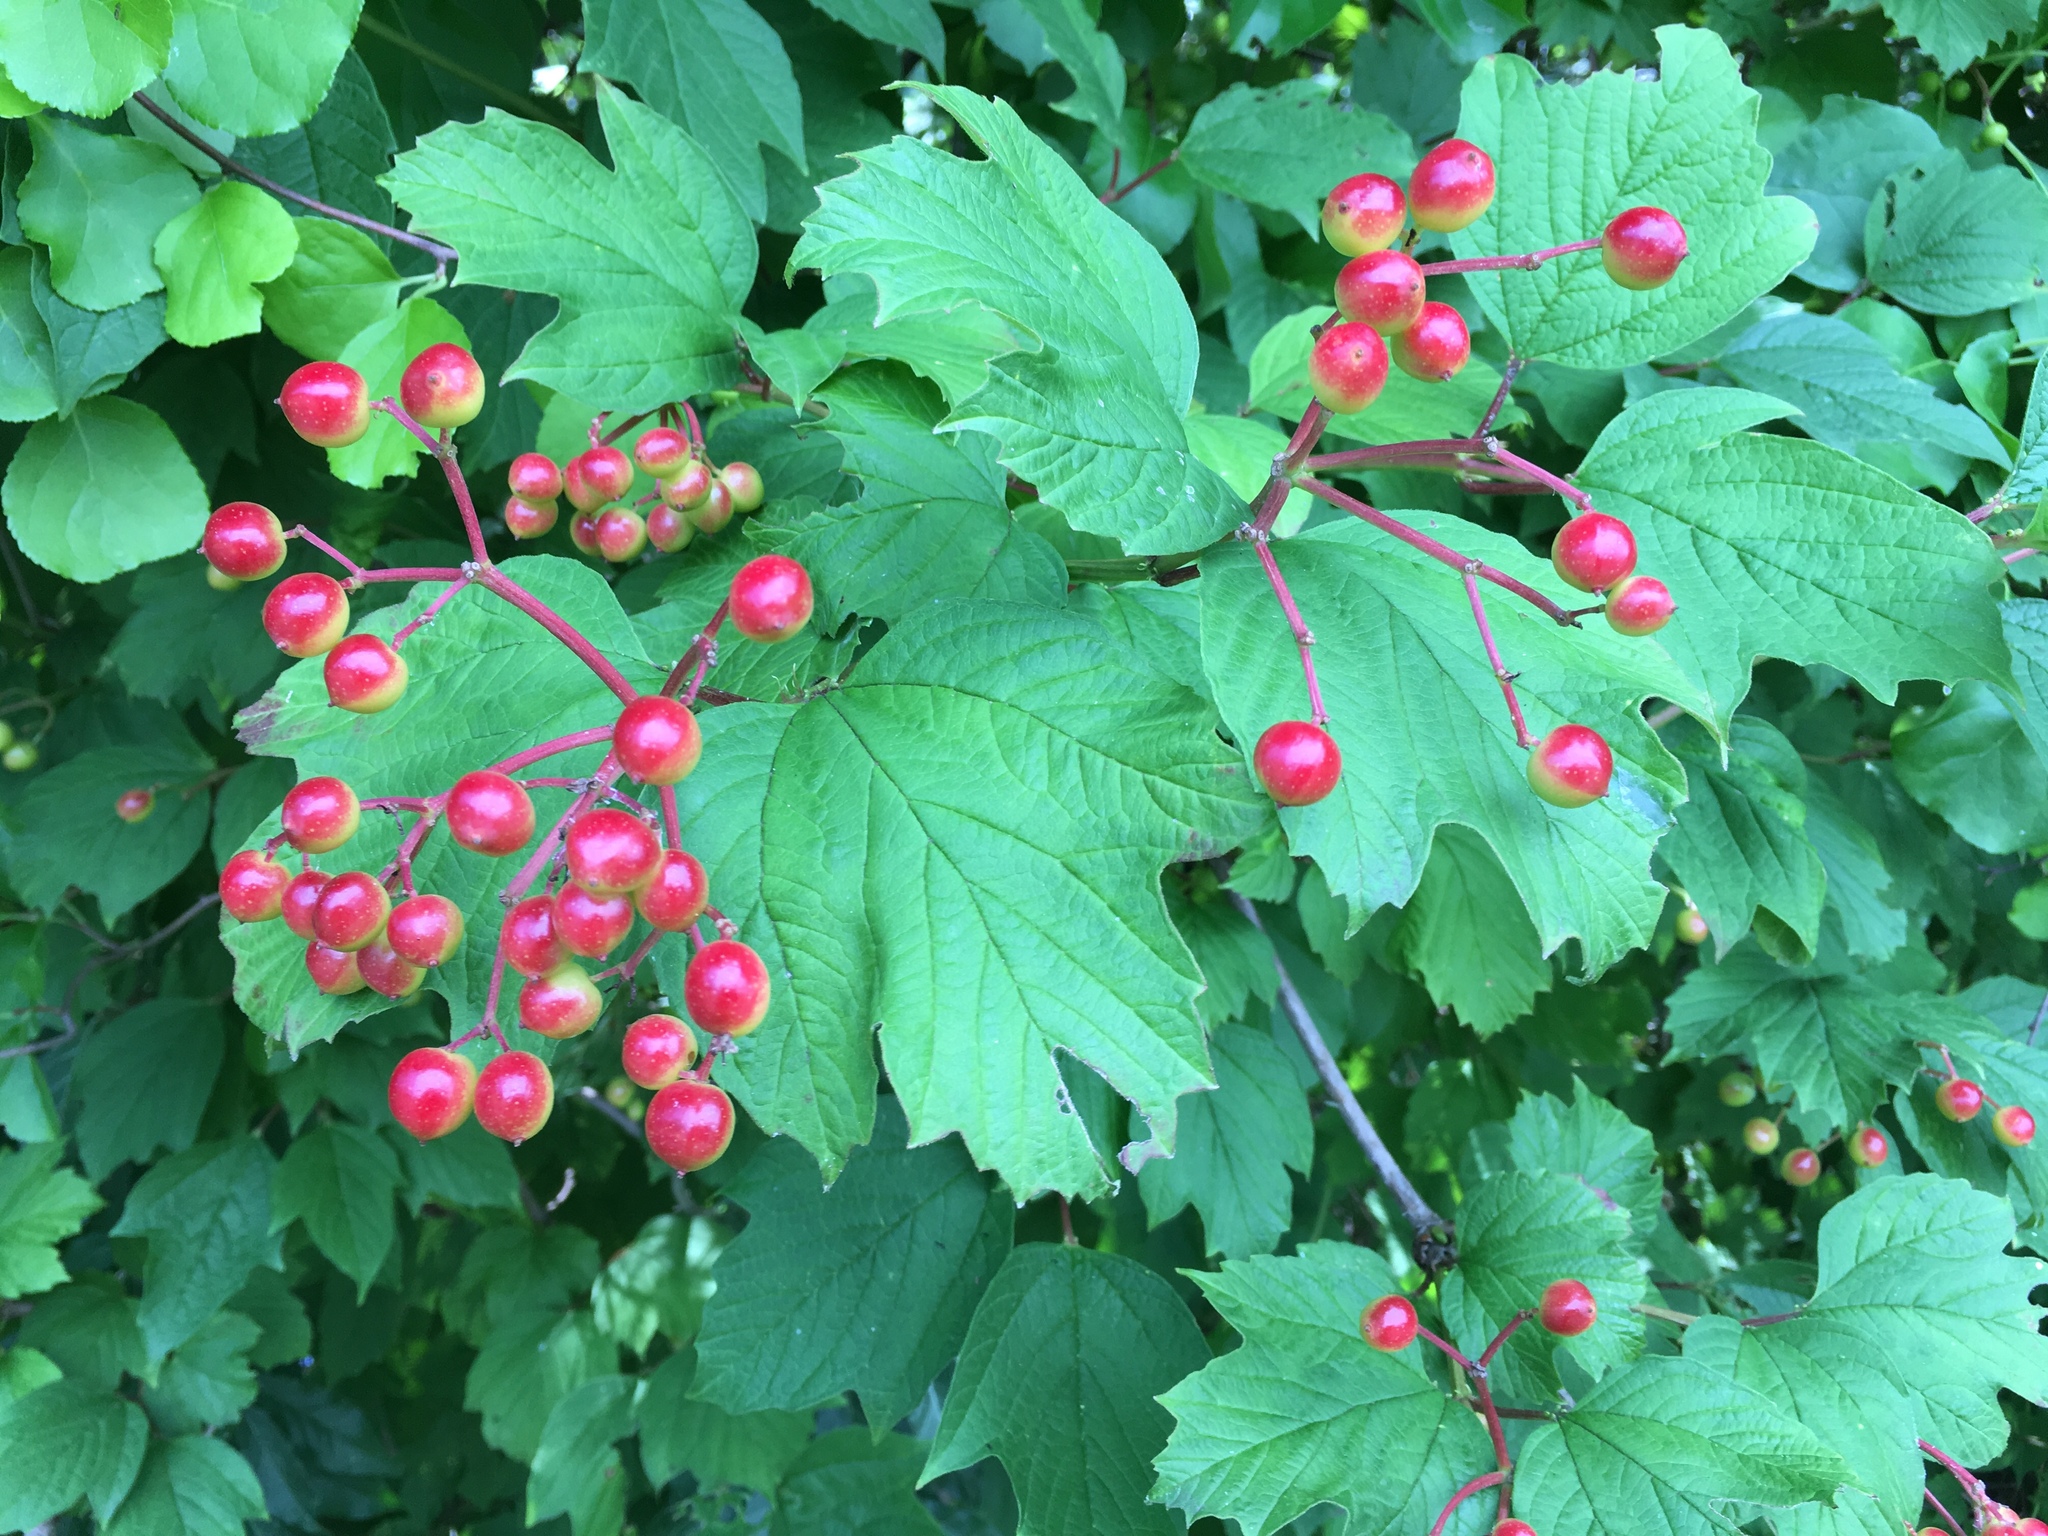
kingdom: Plantae
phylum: Tracheophyta
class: Magnoliopsida
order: Dipsacales
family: Viburnaceae
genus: Viburnum
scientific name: Viburnum opulus
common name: Guelder-rose
